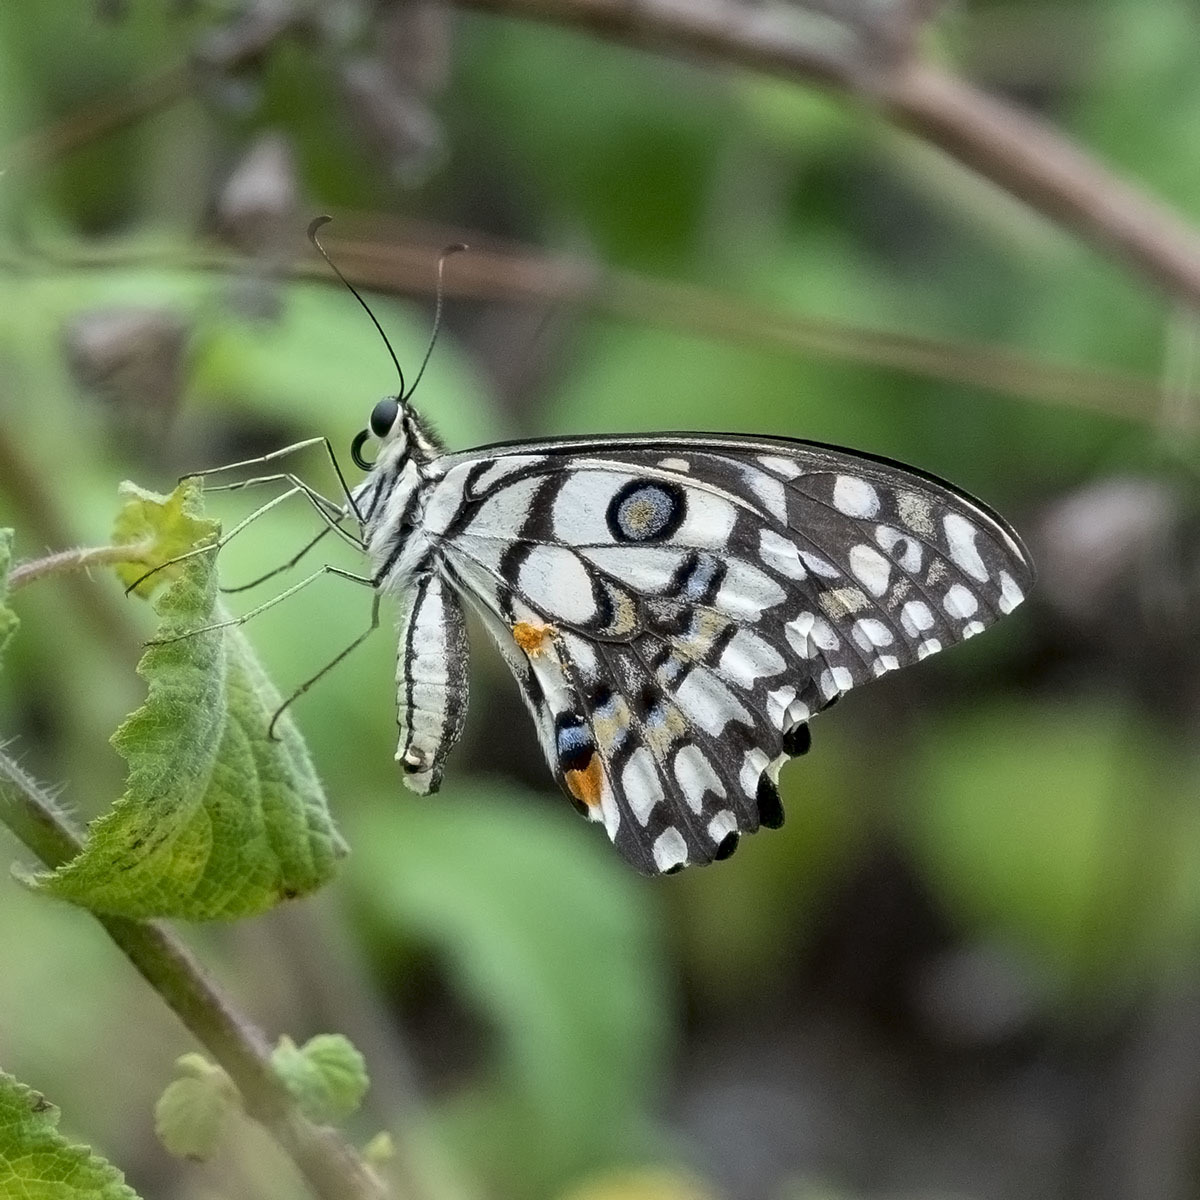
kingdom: Animalia
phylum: Arthropoda
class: Insecta
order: Lepidoptera
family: Papilionidae
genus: Papilio
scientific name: Papilio demoleus
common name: Lime butterfly
